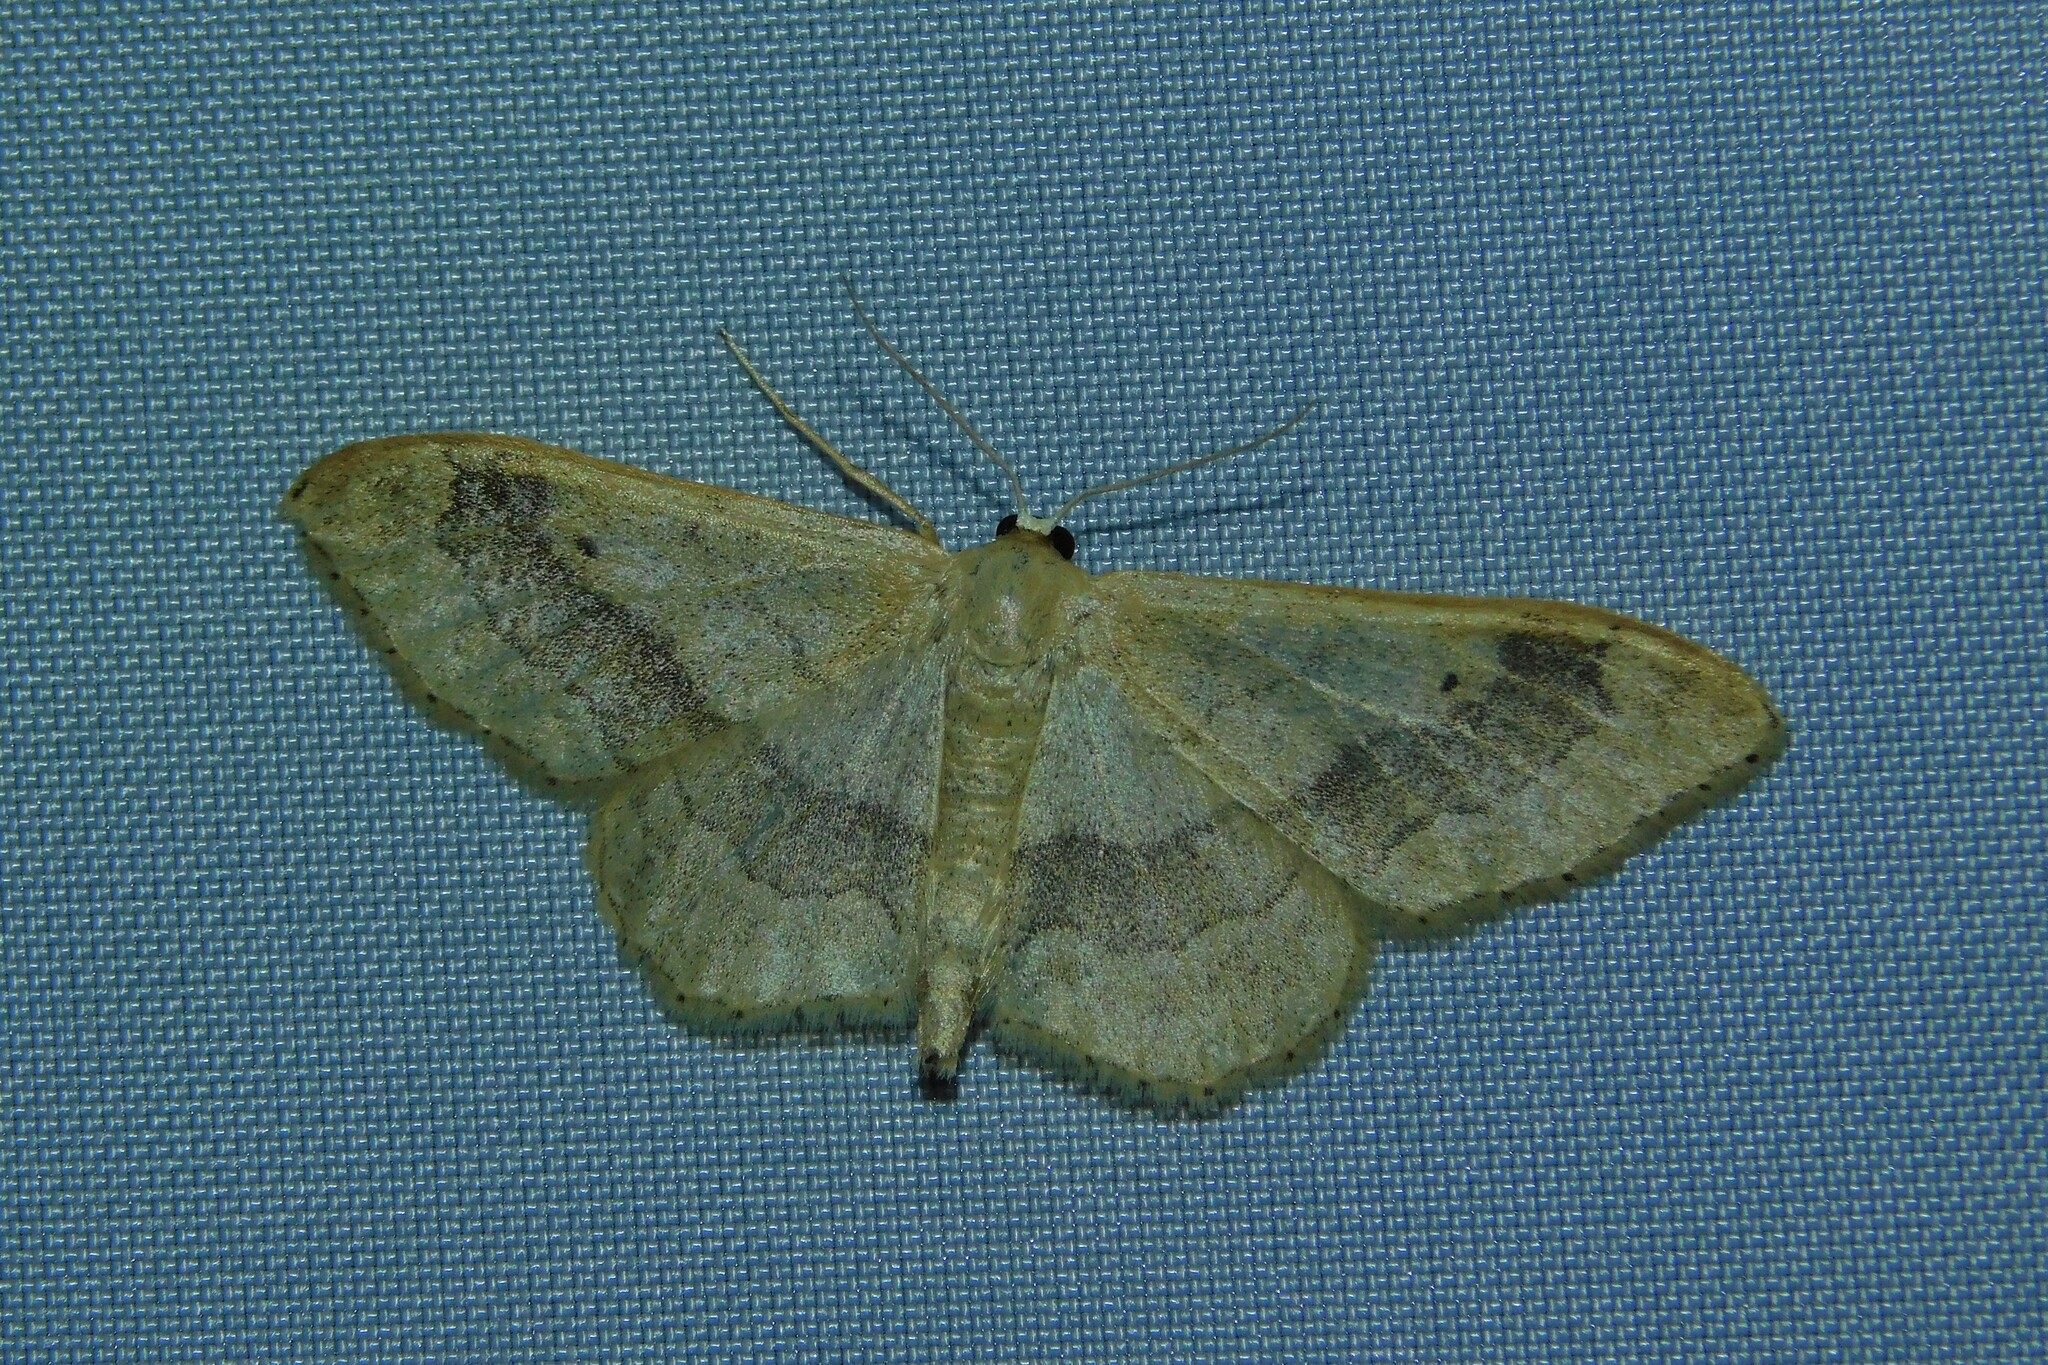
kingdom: Animalia
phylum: Arthropoda
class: Insecta
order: Lepidoptera
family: Geometridae
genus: Idaea
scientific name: Idaea aversata
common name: Riband wave
